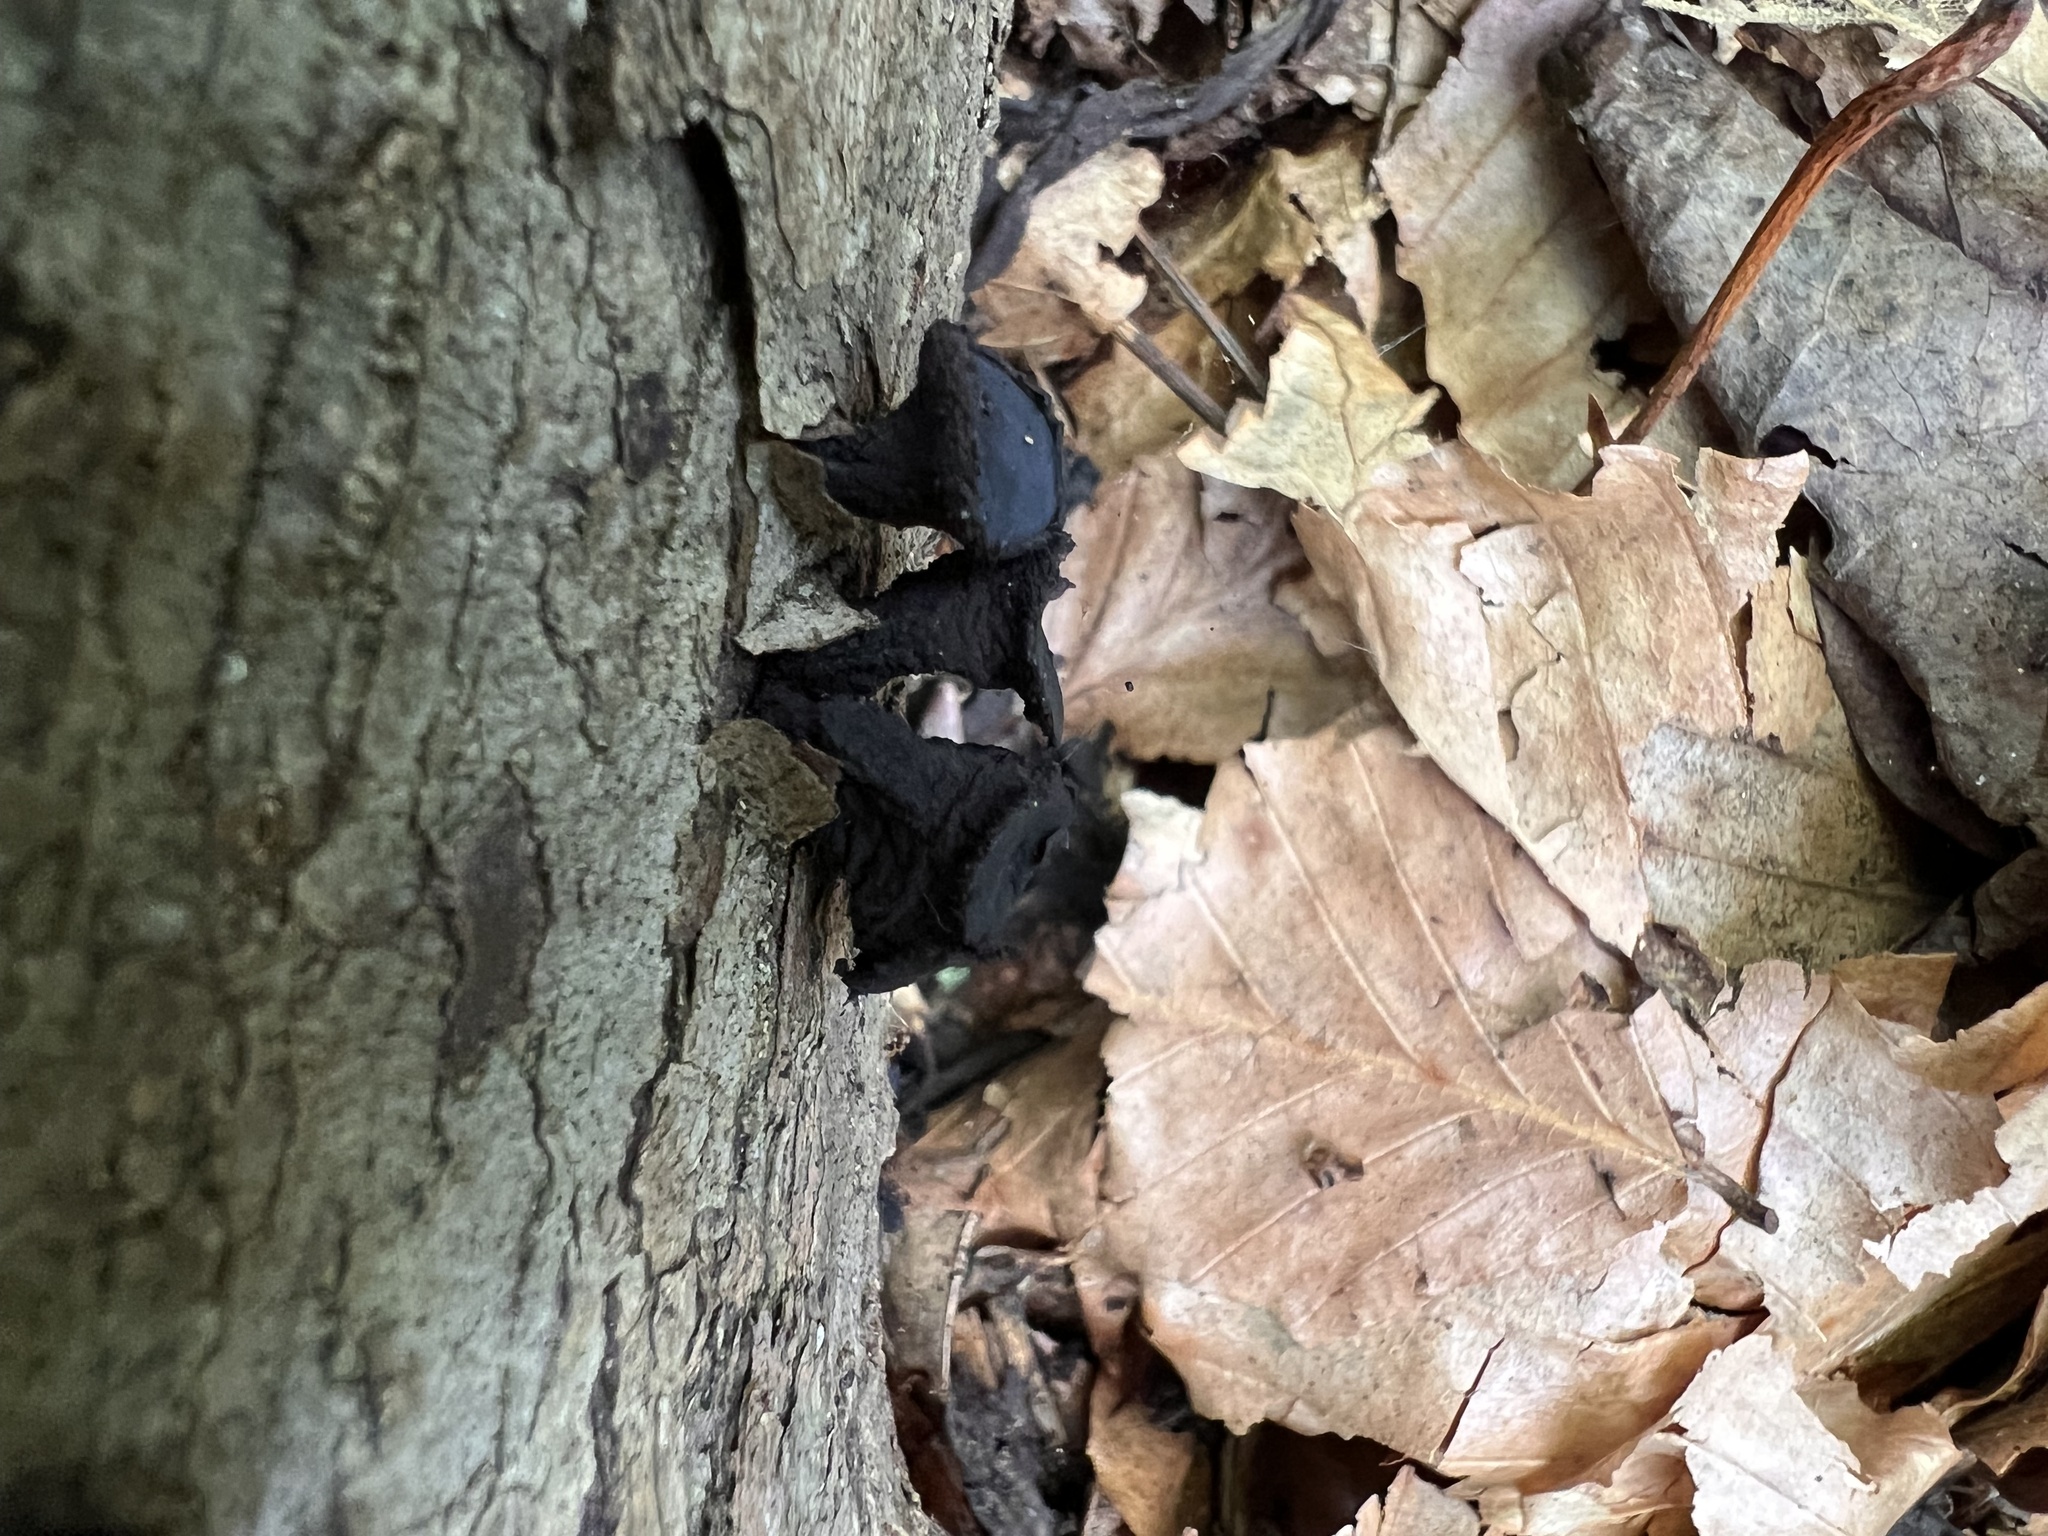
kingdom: Fungi
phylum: Ascomycota
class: Leotiomycetes
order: Phacidiales
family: Phacidiaceae
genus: Bulgaria
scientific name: Bulgaria inquinans
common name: Black bulgar
